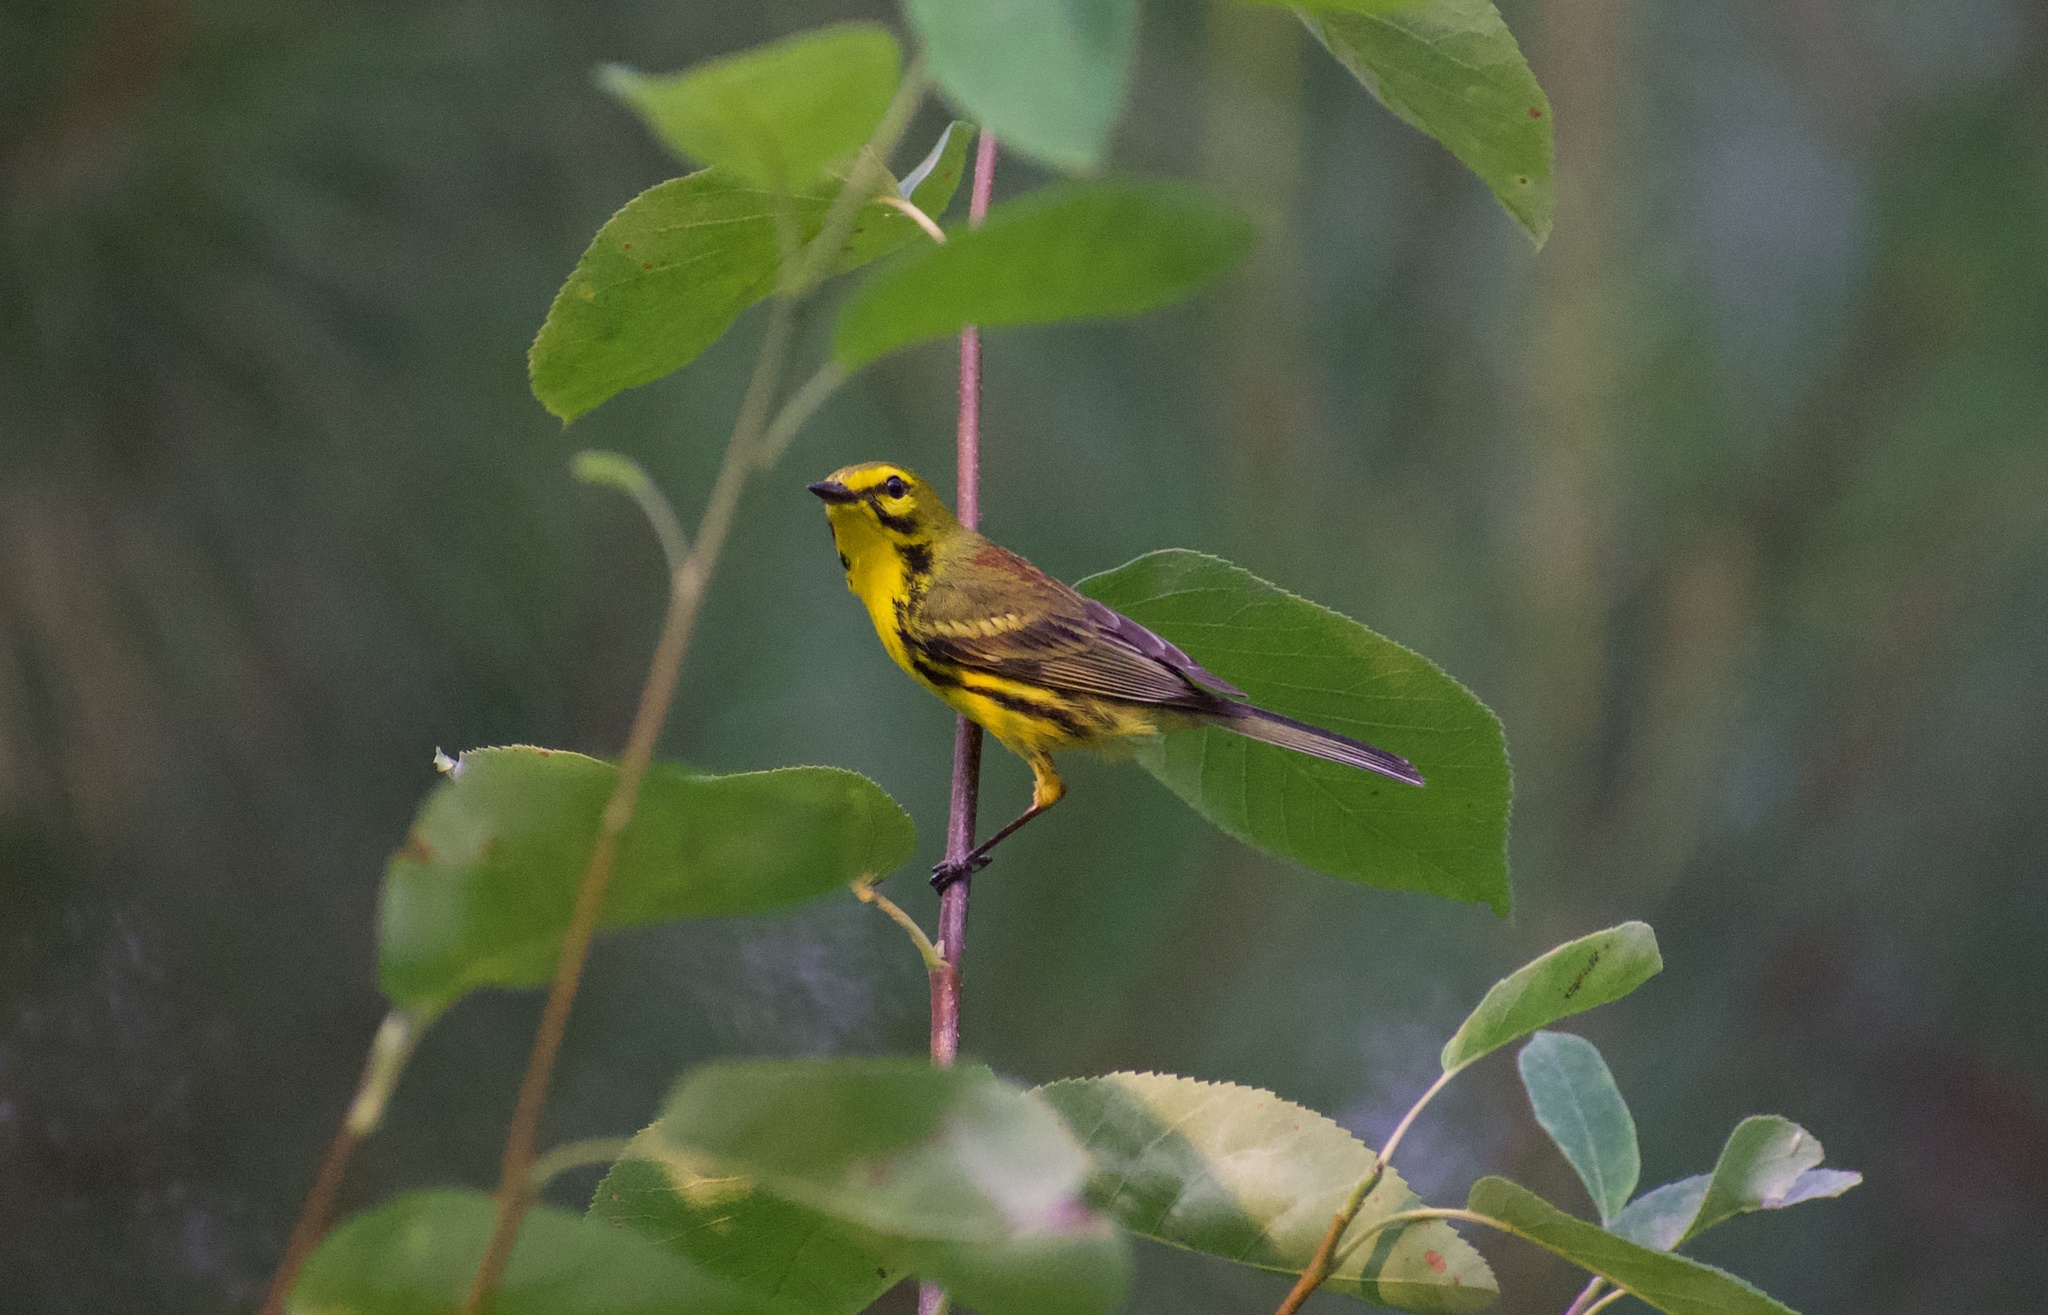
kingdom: Animalia
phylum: Chordata
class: Aves
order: Passeriformes
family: Parulidae
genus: Setophaga
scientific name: Setophaga discolor
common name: Prairie warbler
